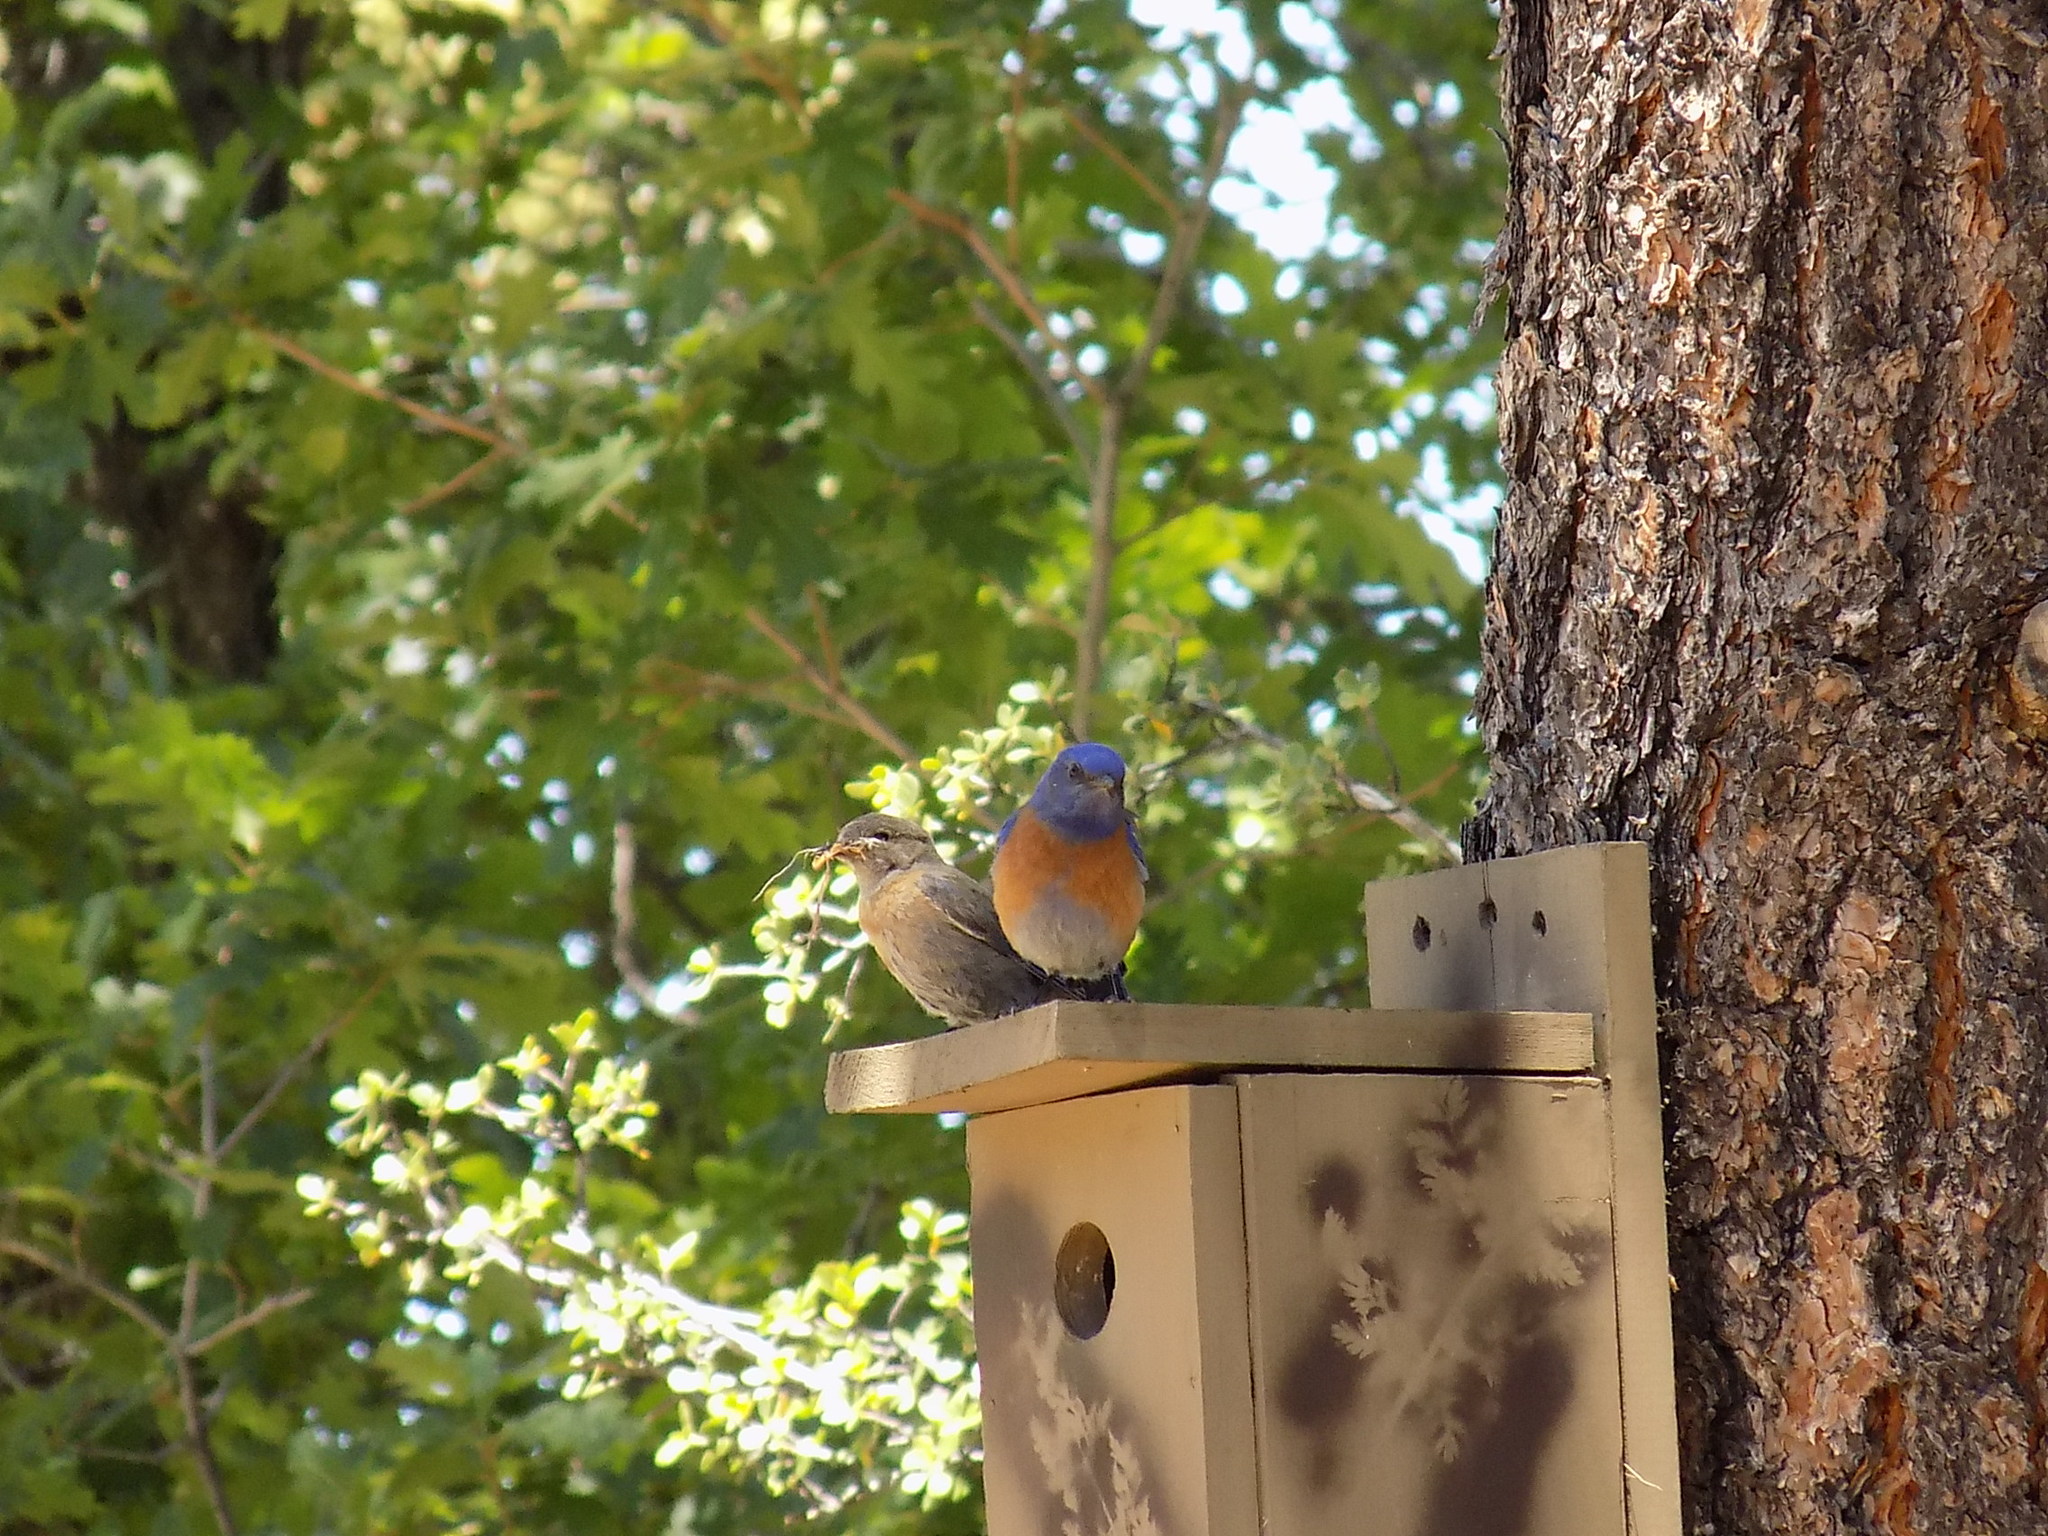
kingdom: Animalia
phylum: Chordata
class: Aves
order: Passeriformes
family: Turdidae
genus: Sialia
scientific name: Sialia mexicana
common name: Western bluebird
